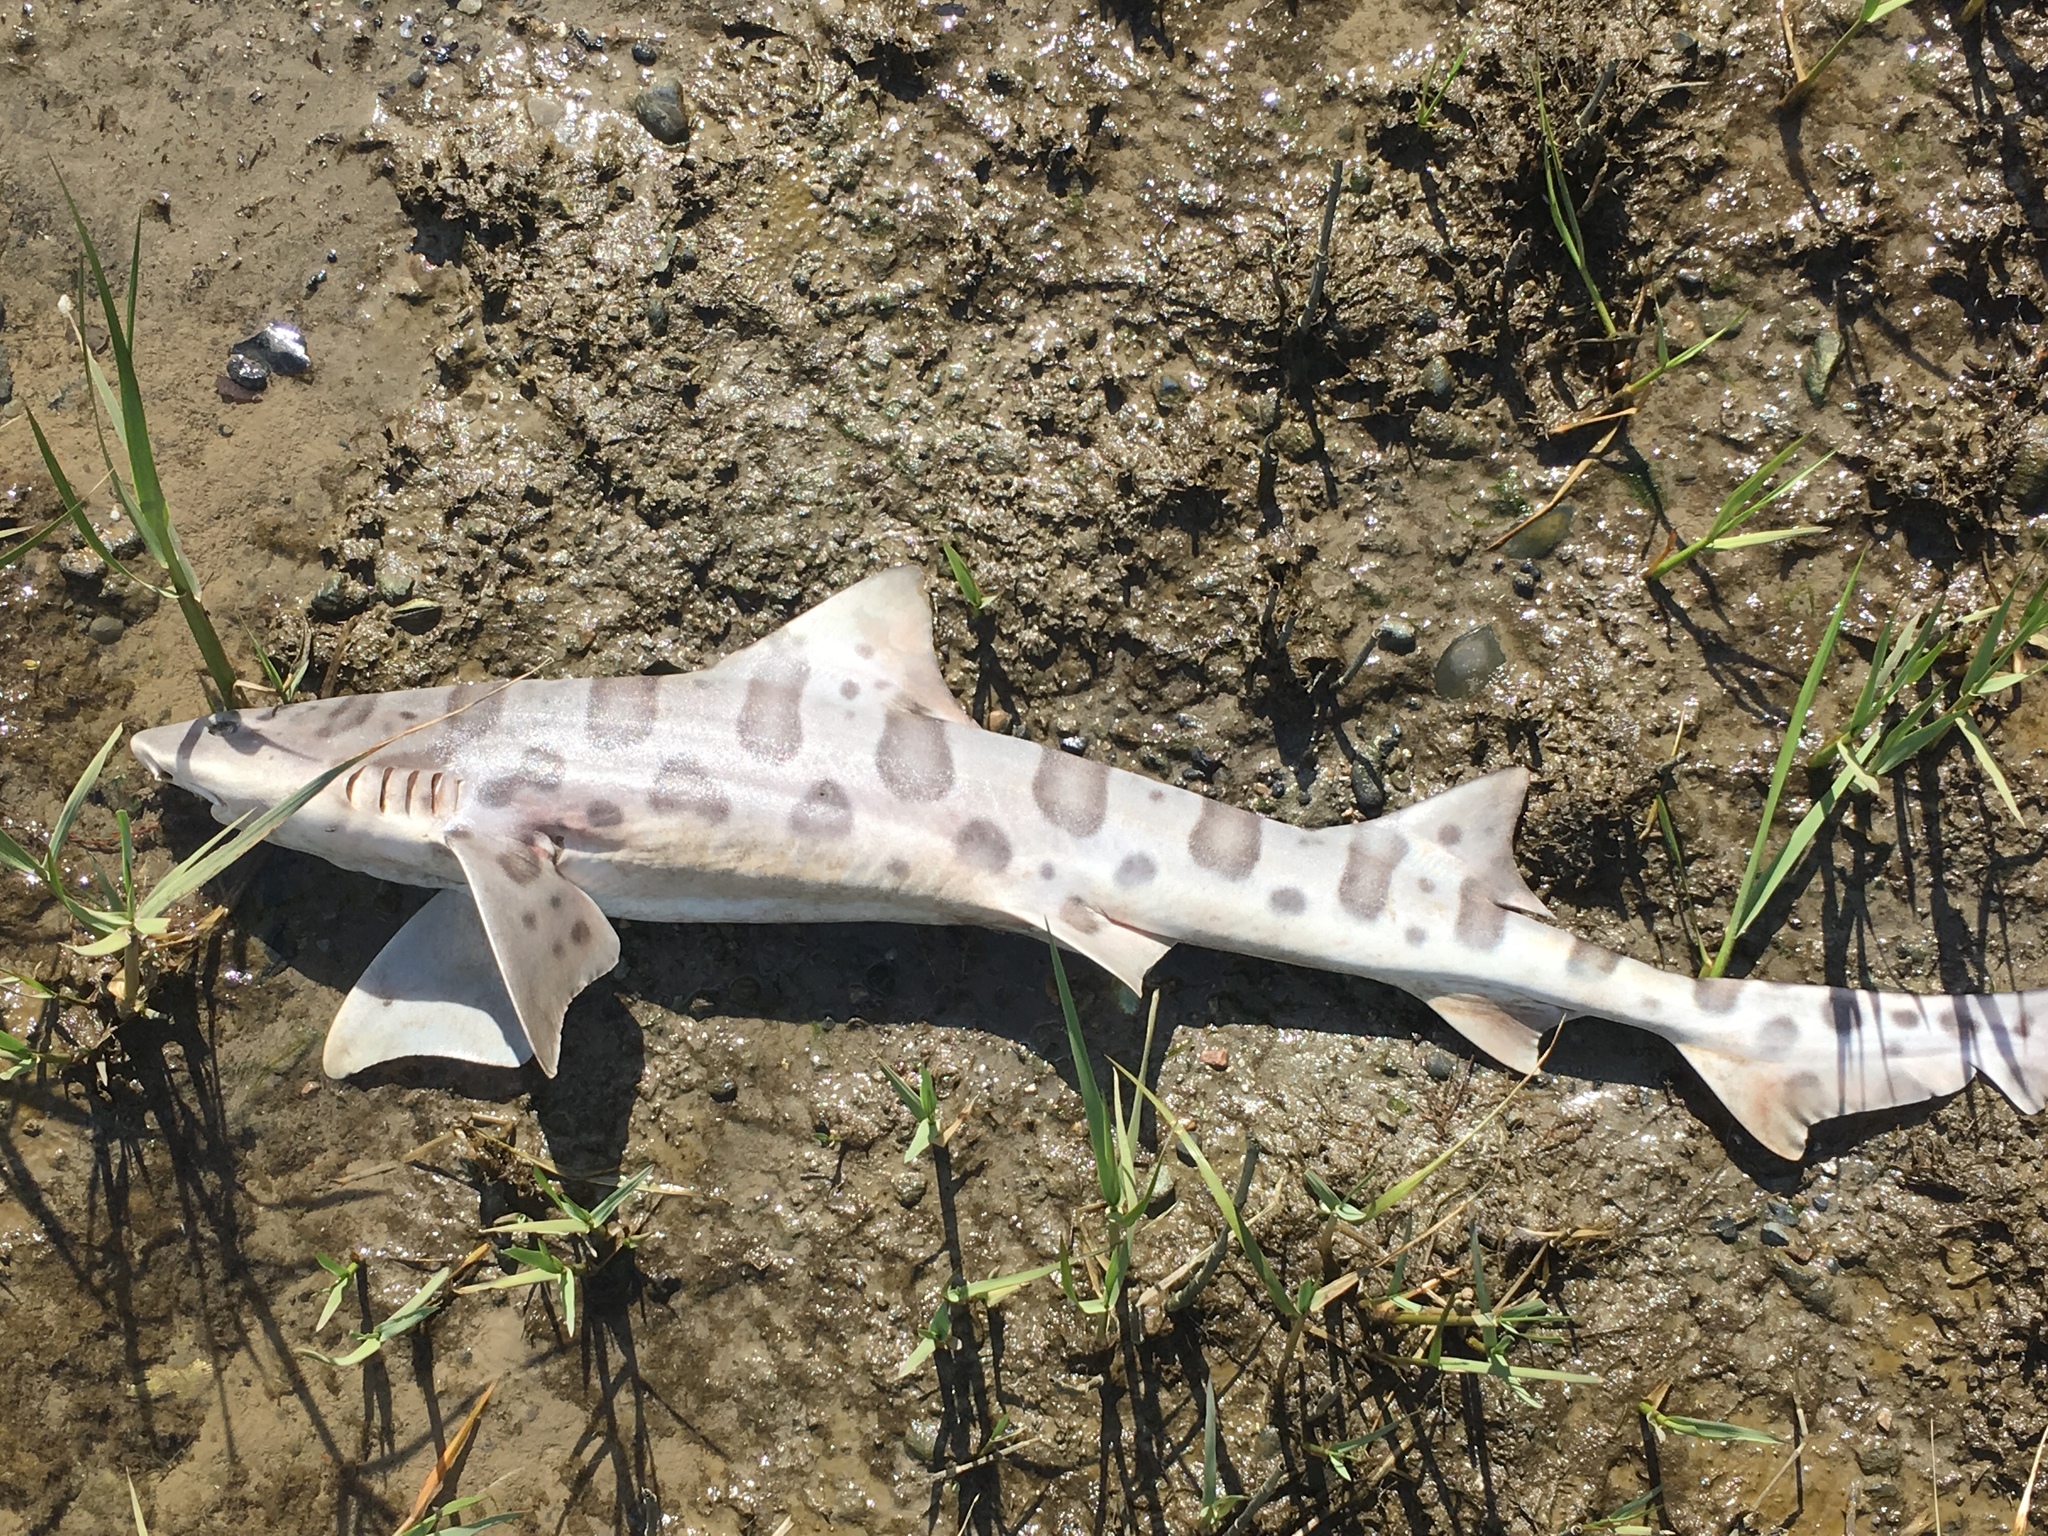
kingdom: Animalia
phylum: Chordata
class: Elasmobranchii
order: Carcharhiniformes
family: Triakidae
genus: Triakis
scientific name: Triakis semifasciata
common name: Leopard shark
